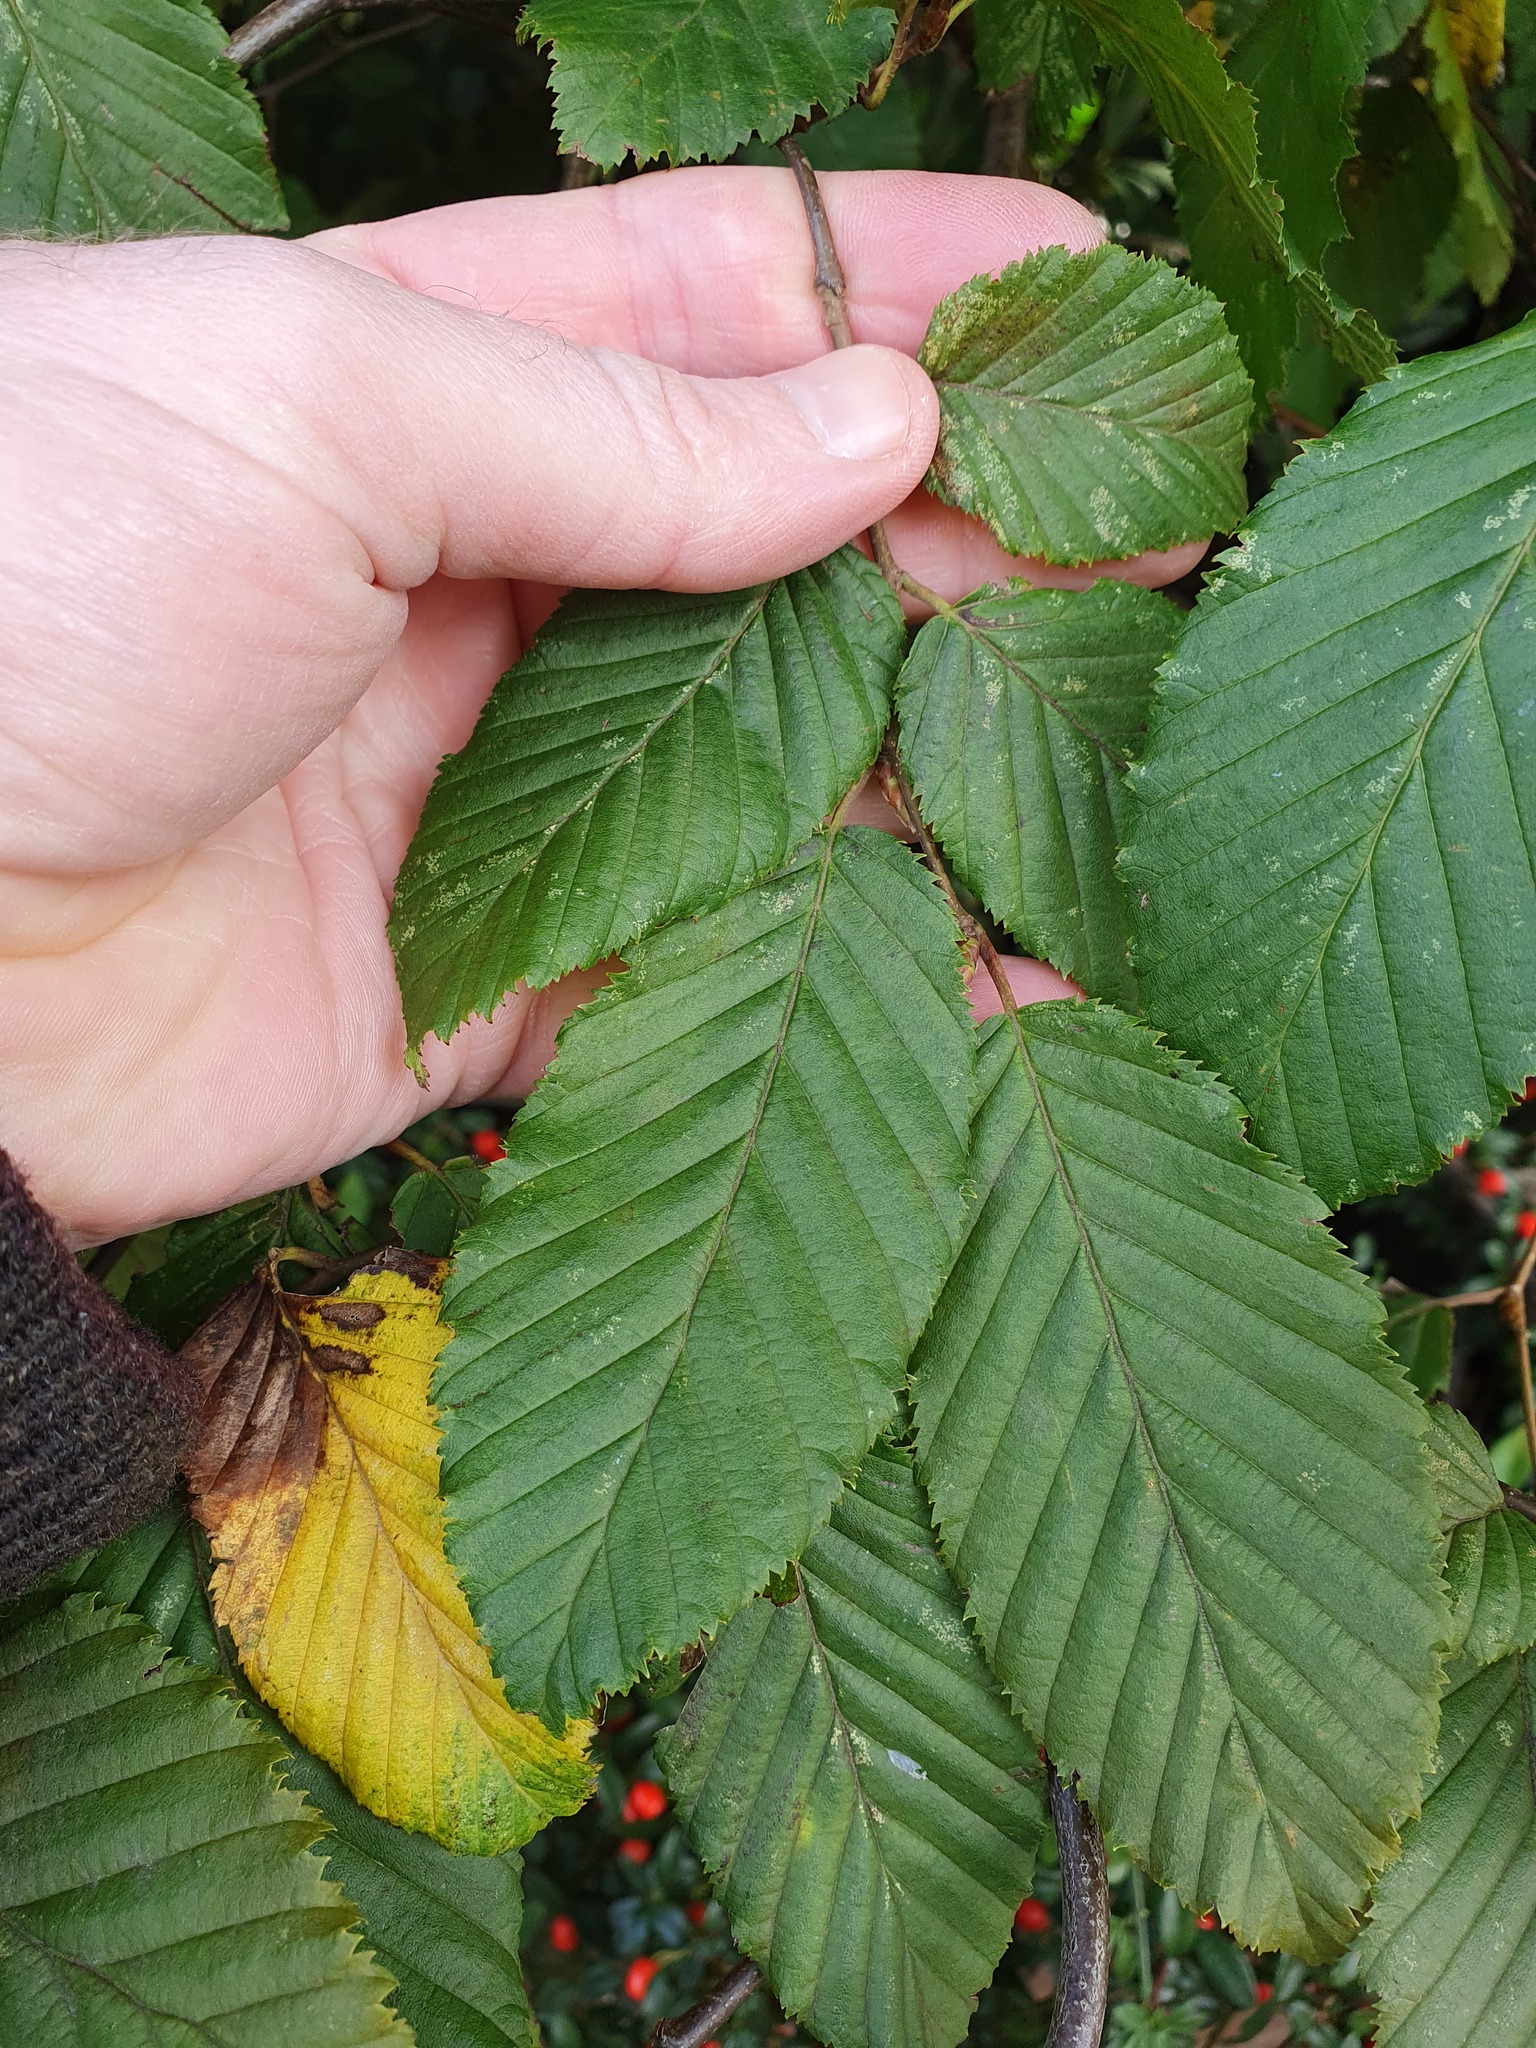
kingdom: Plantae
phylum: Tracheophyta
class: Magnoliopsida
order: Fagales
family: Betulaceae
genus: Carpinus
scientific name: Carpinus betulus
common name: Hornbeam
